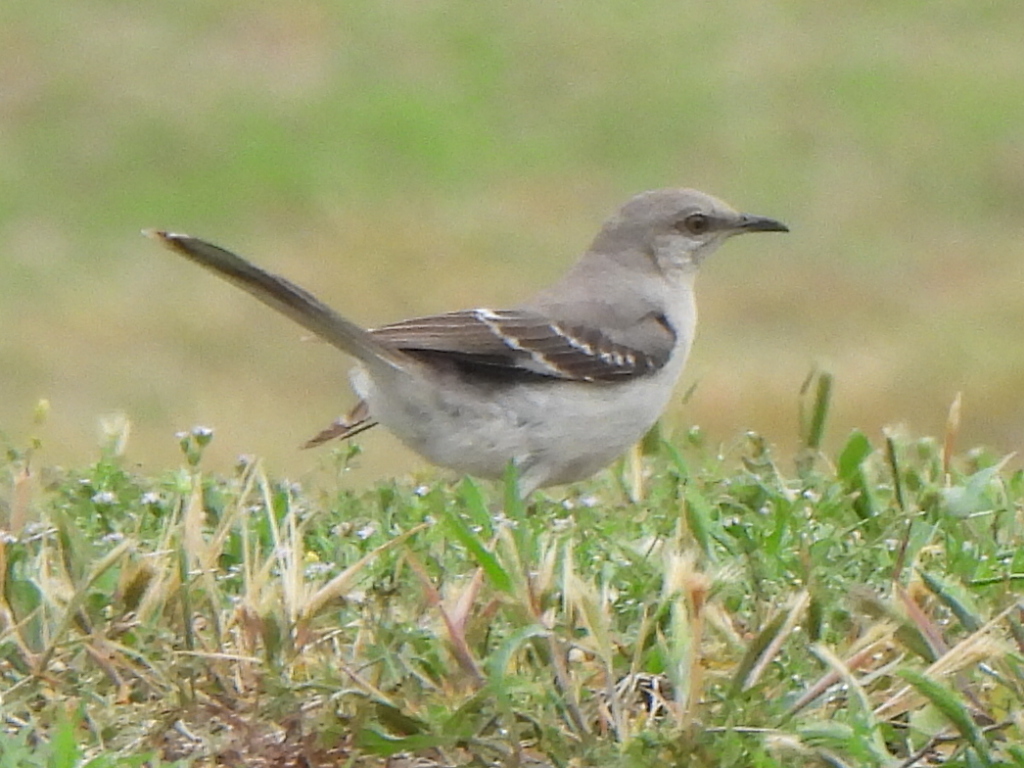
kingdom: Animalia
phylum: Chordata
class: Aves
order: Passeriformes
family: Mimidae
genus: Mimus
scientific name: Mimus polyglottos
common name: Northern mockingbird
